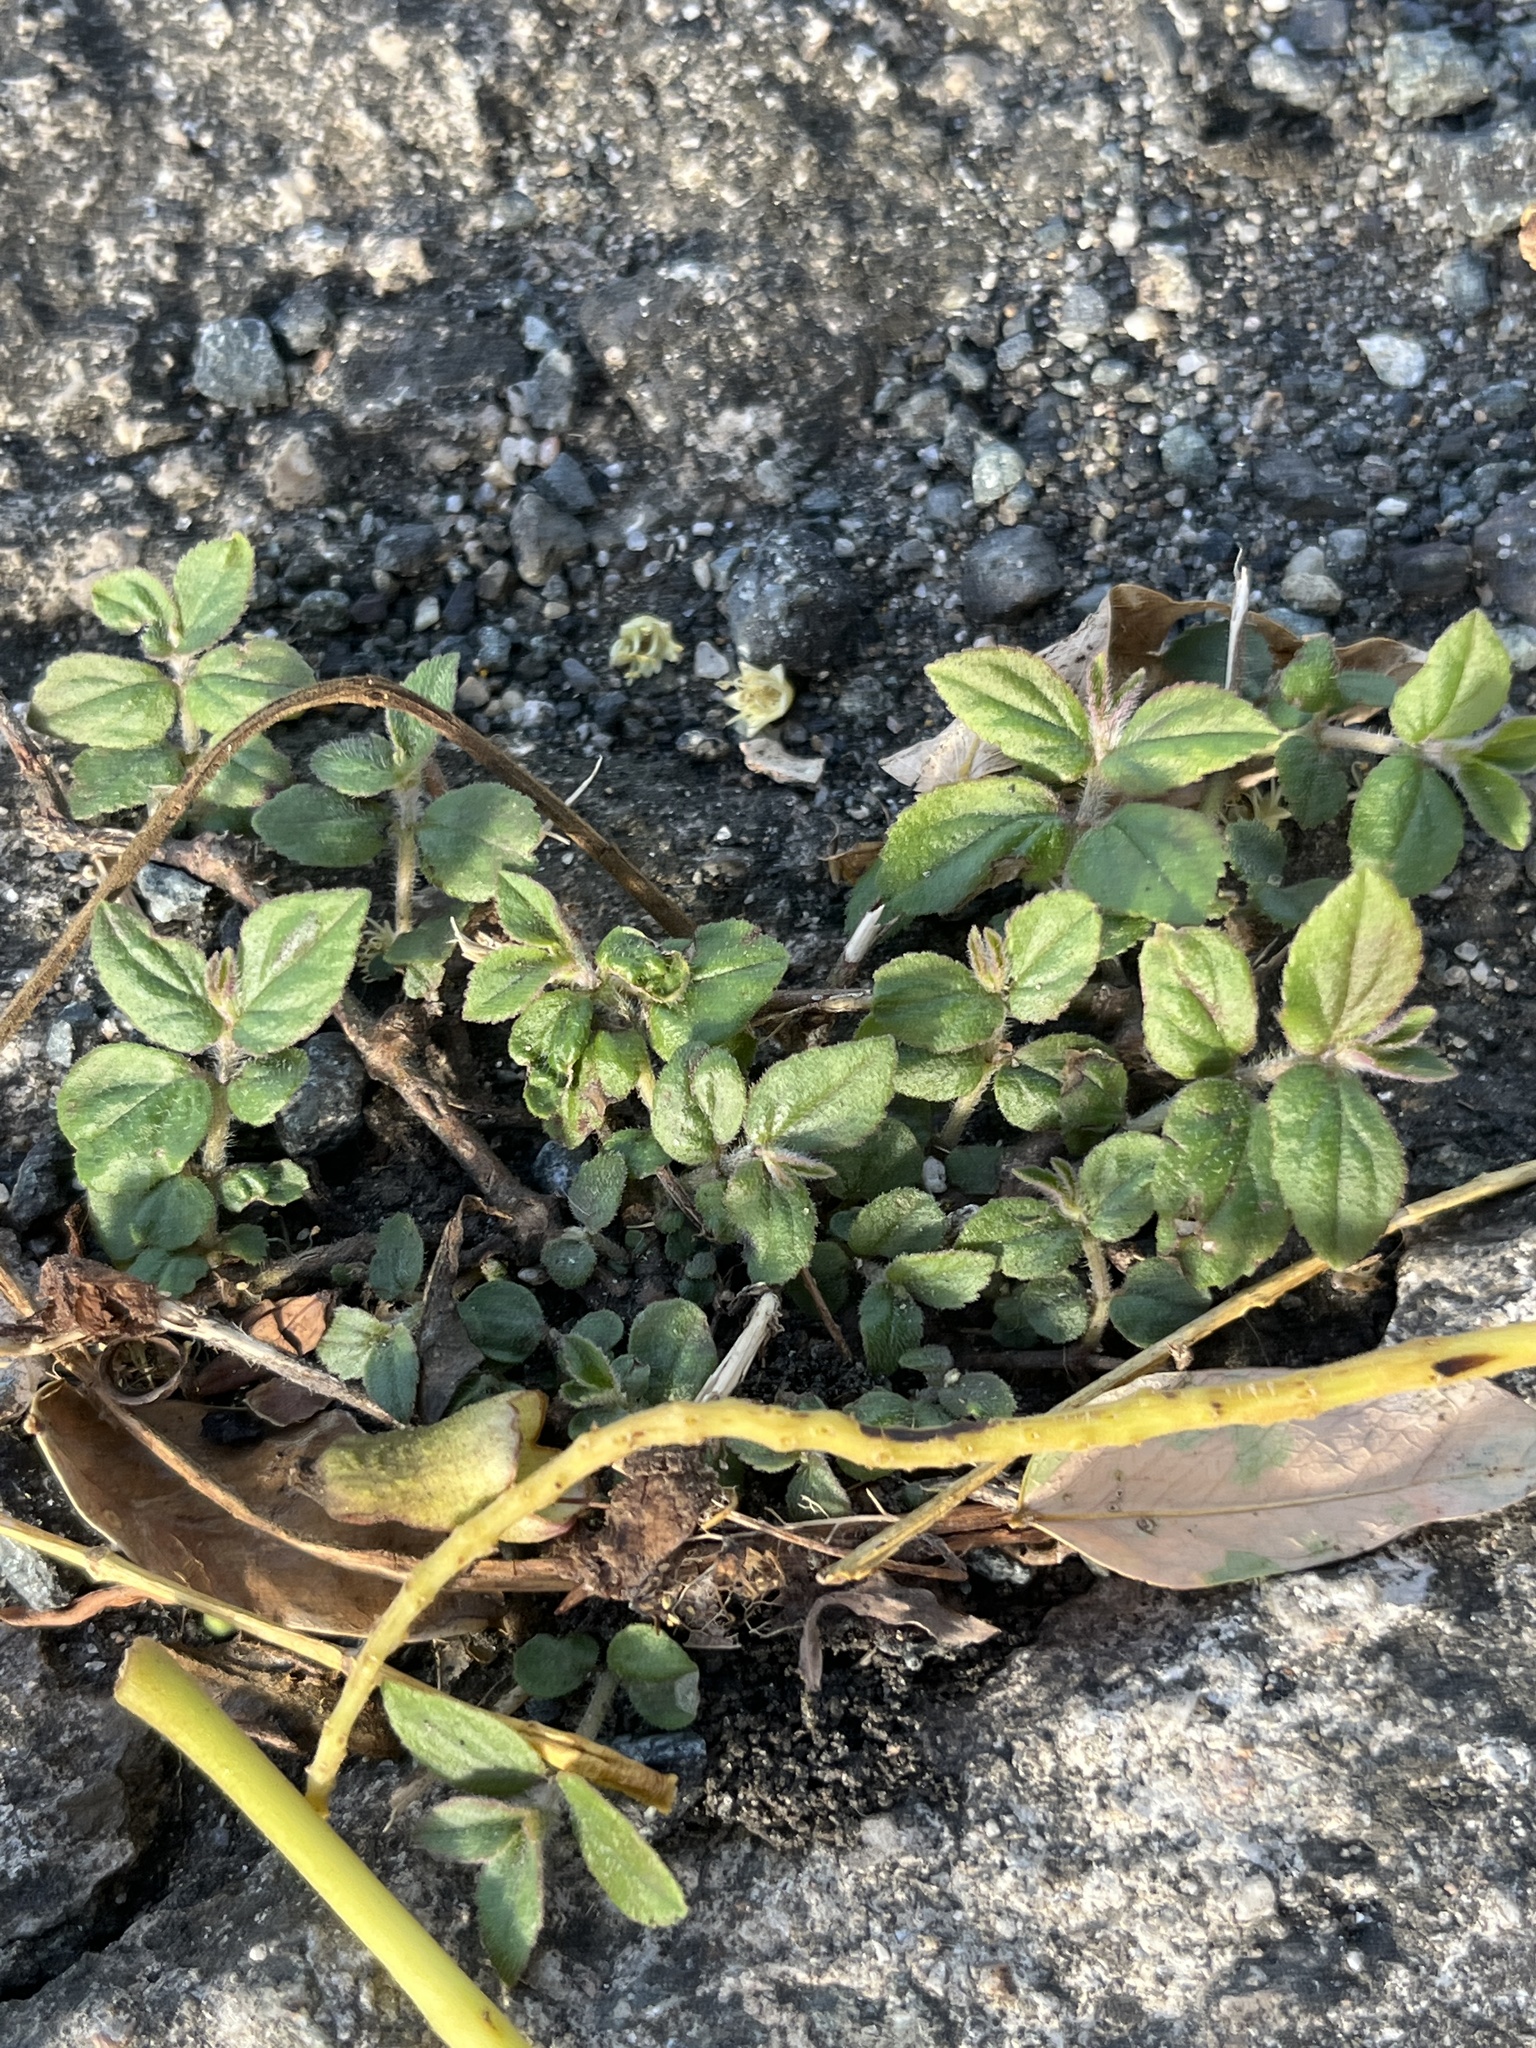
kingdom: Plantae
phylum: Tracheophyta
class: Magnoliopsida
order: Malpighiales
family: Euphorbiaceae
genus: Euphorbia
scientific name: Euphorbia ophthalmica
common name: Florida hammock sandmat
